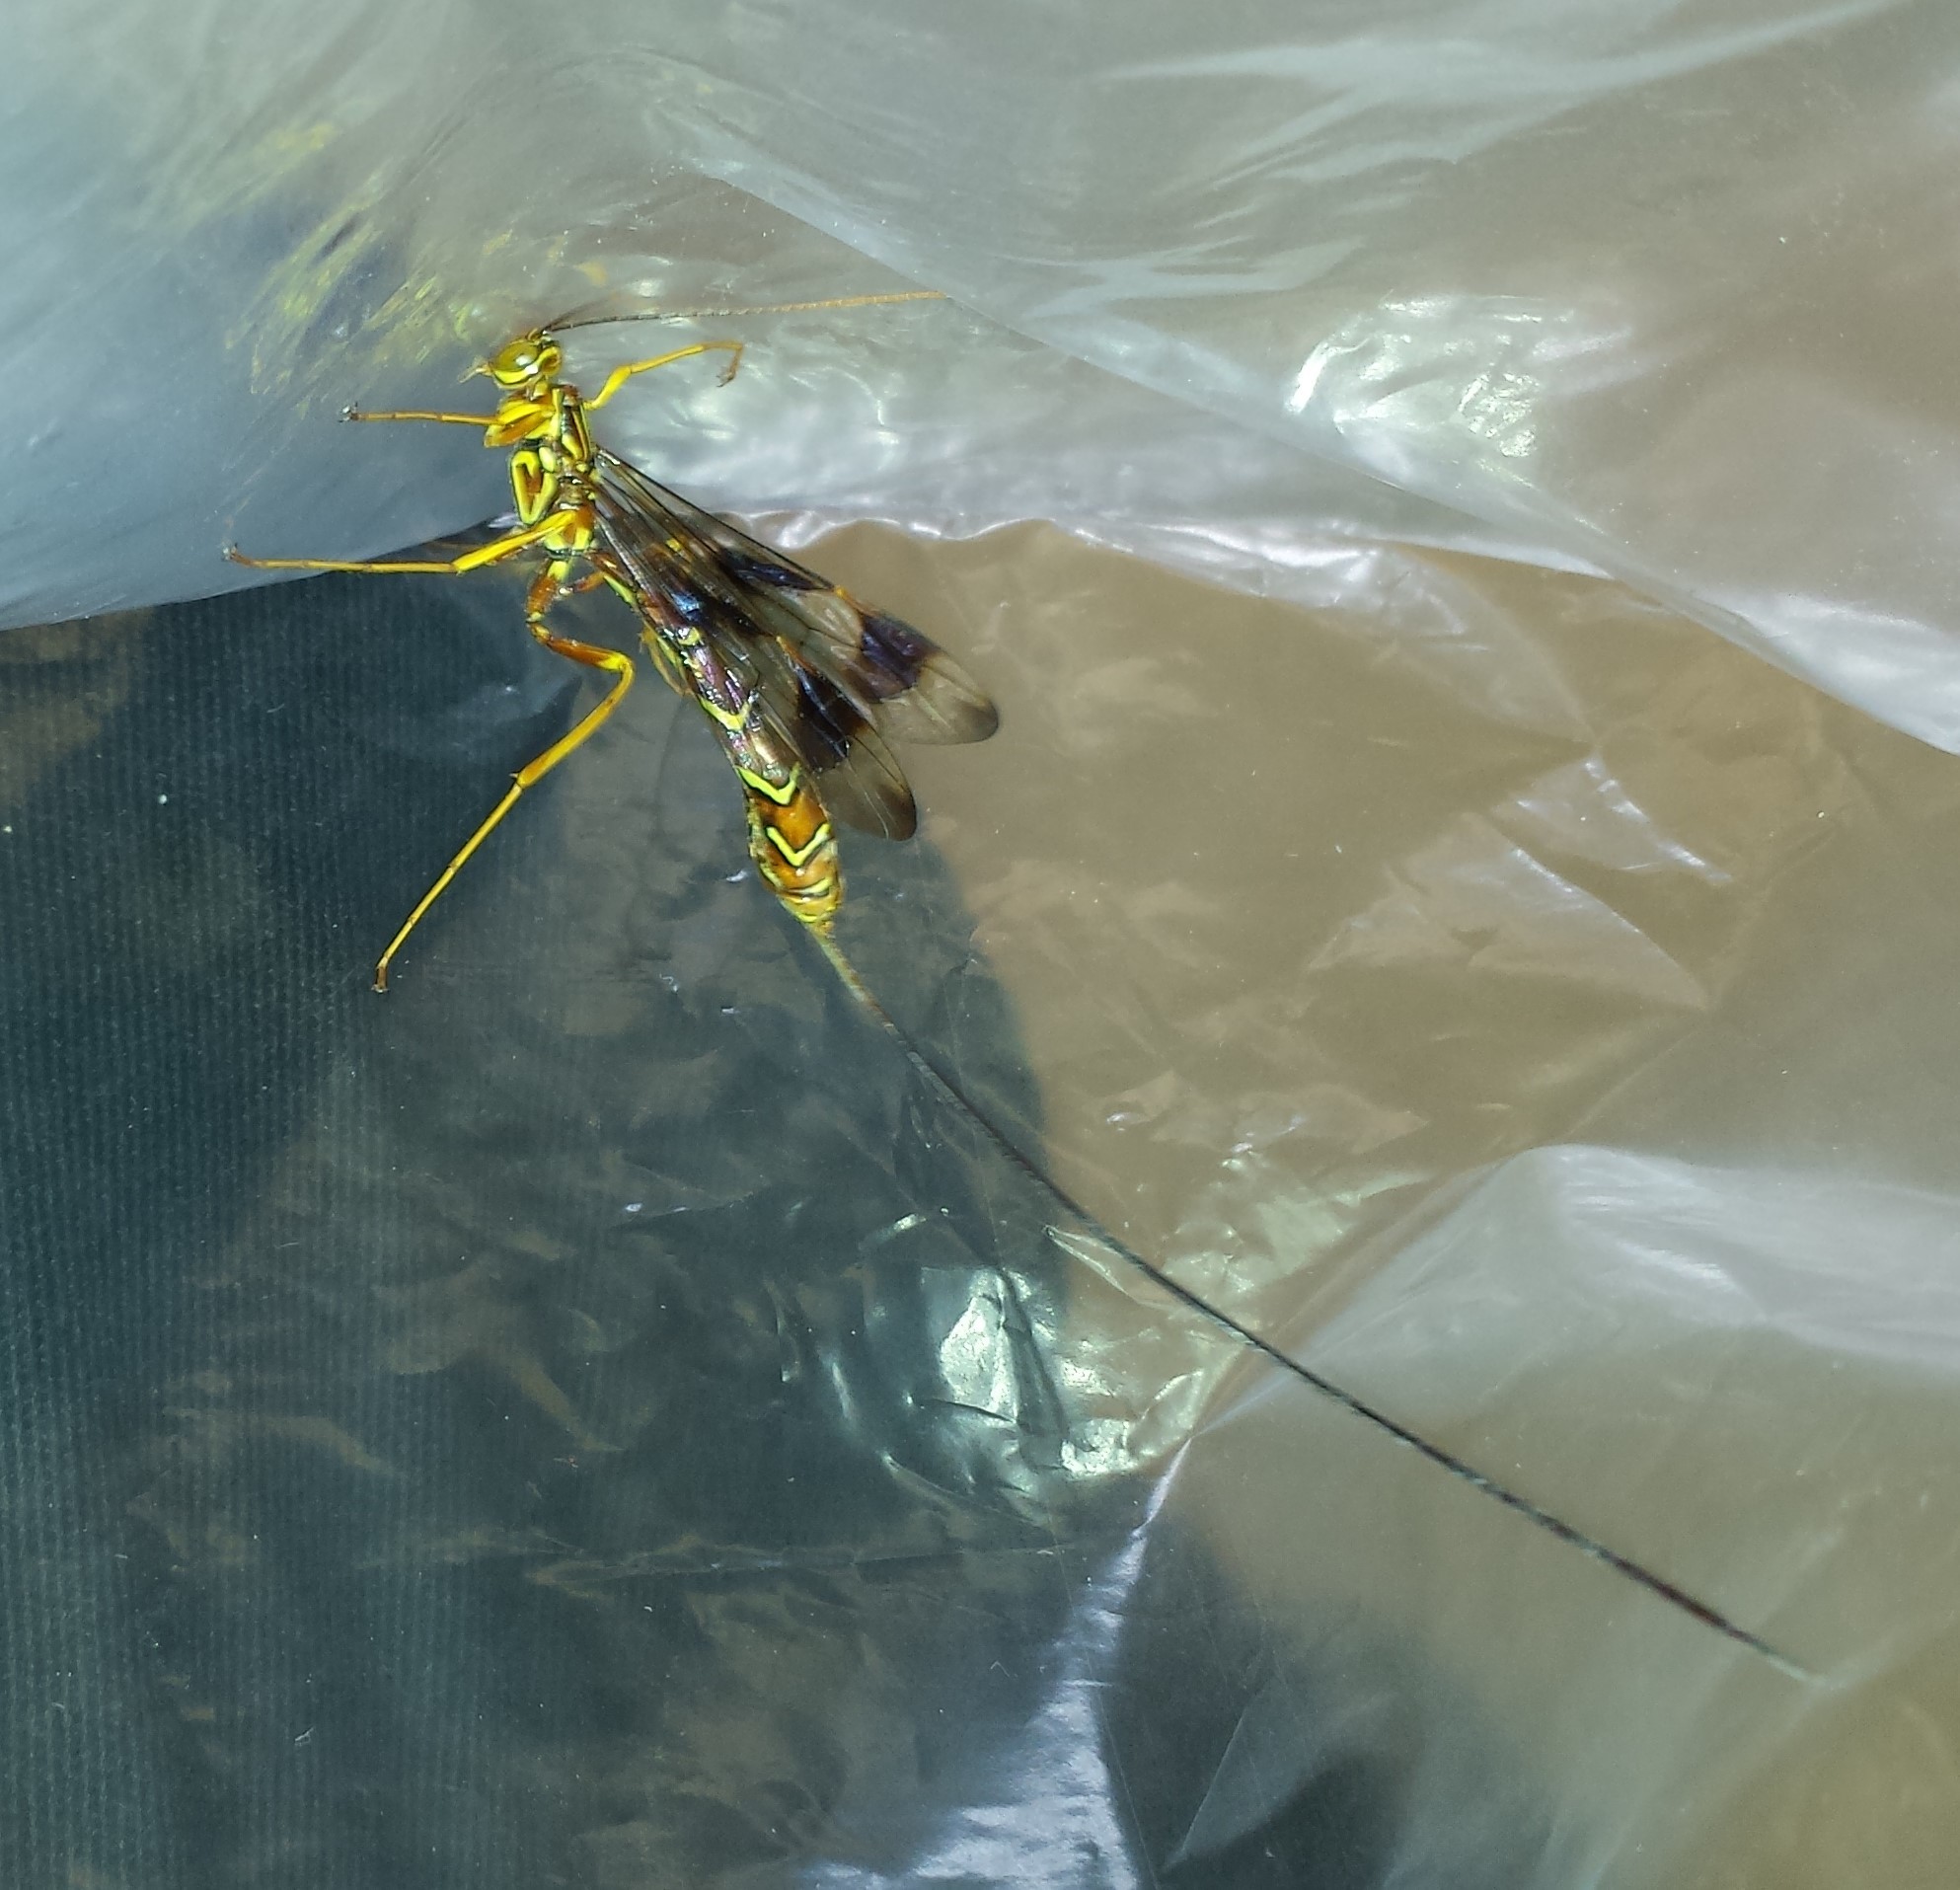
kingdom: Animalia
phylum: Arthropoda
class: Insecta
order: Hymenoptera
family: Ichneumonidae
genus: Megarhyssa
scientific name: Megarhyssa macrura
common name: Long-tailed giant ichneumonid wasp
